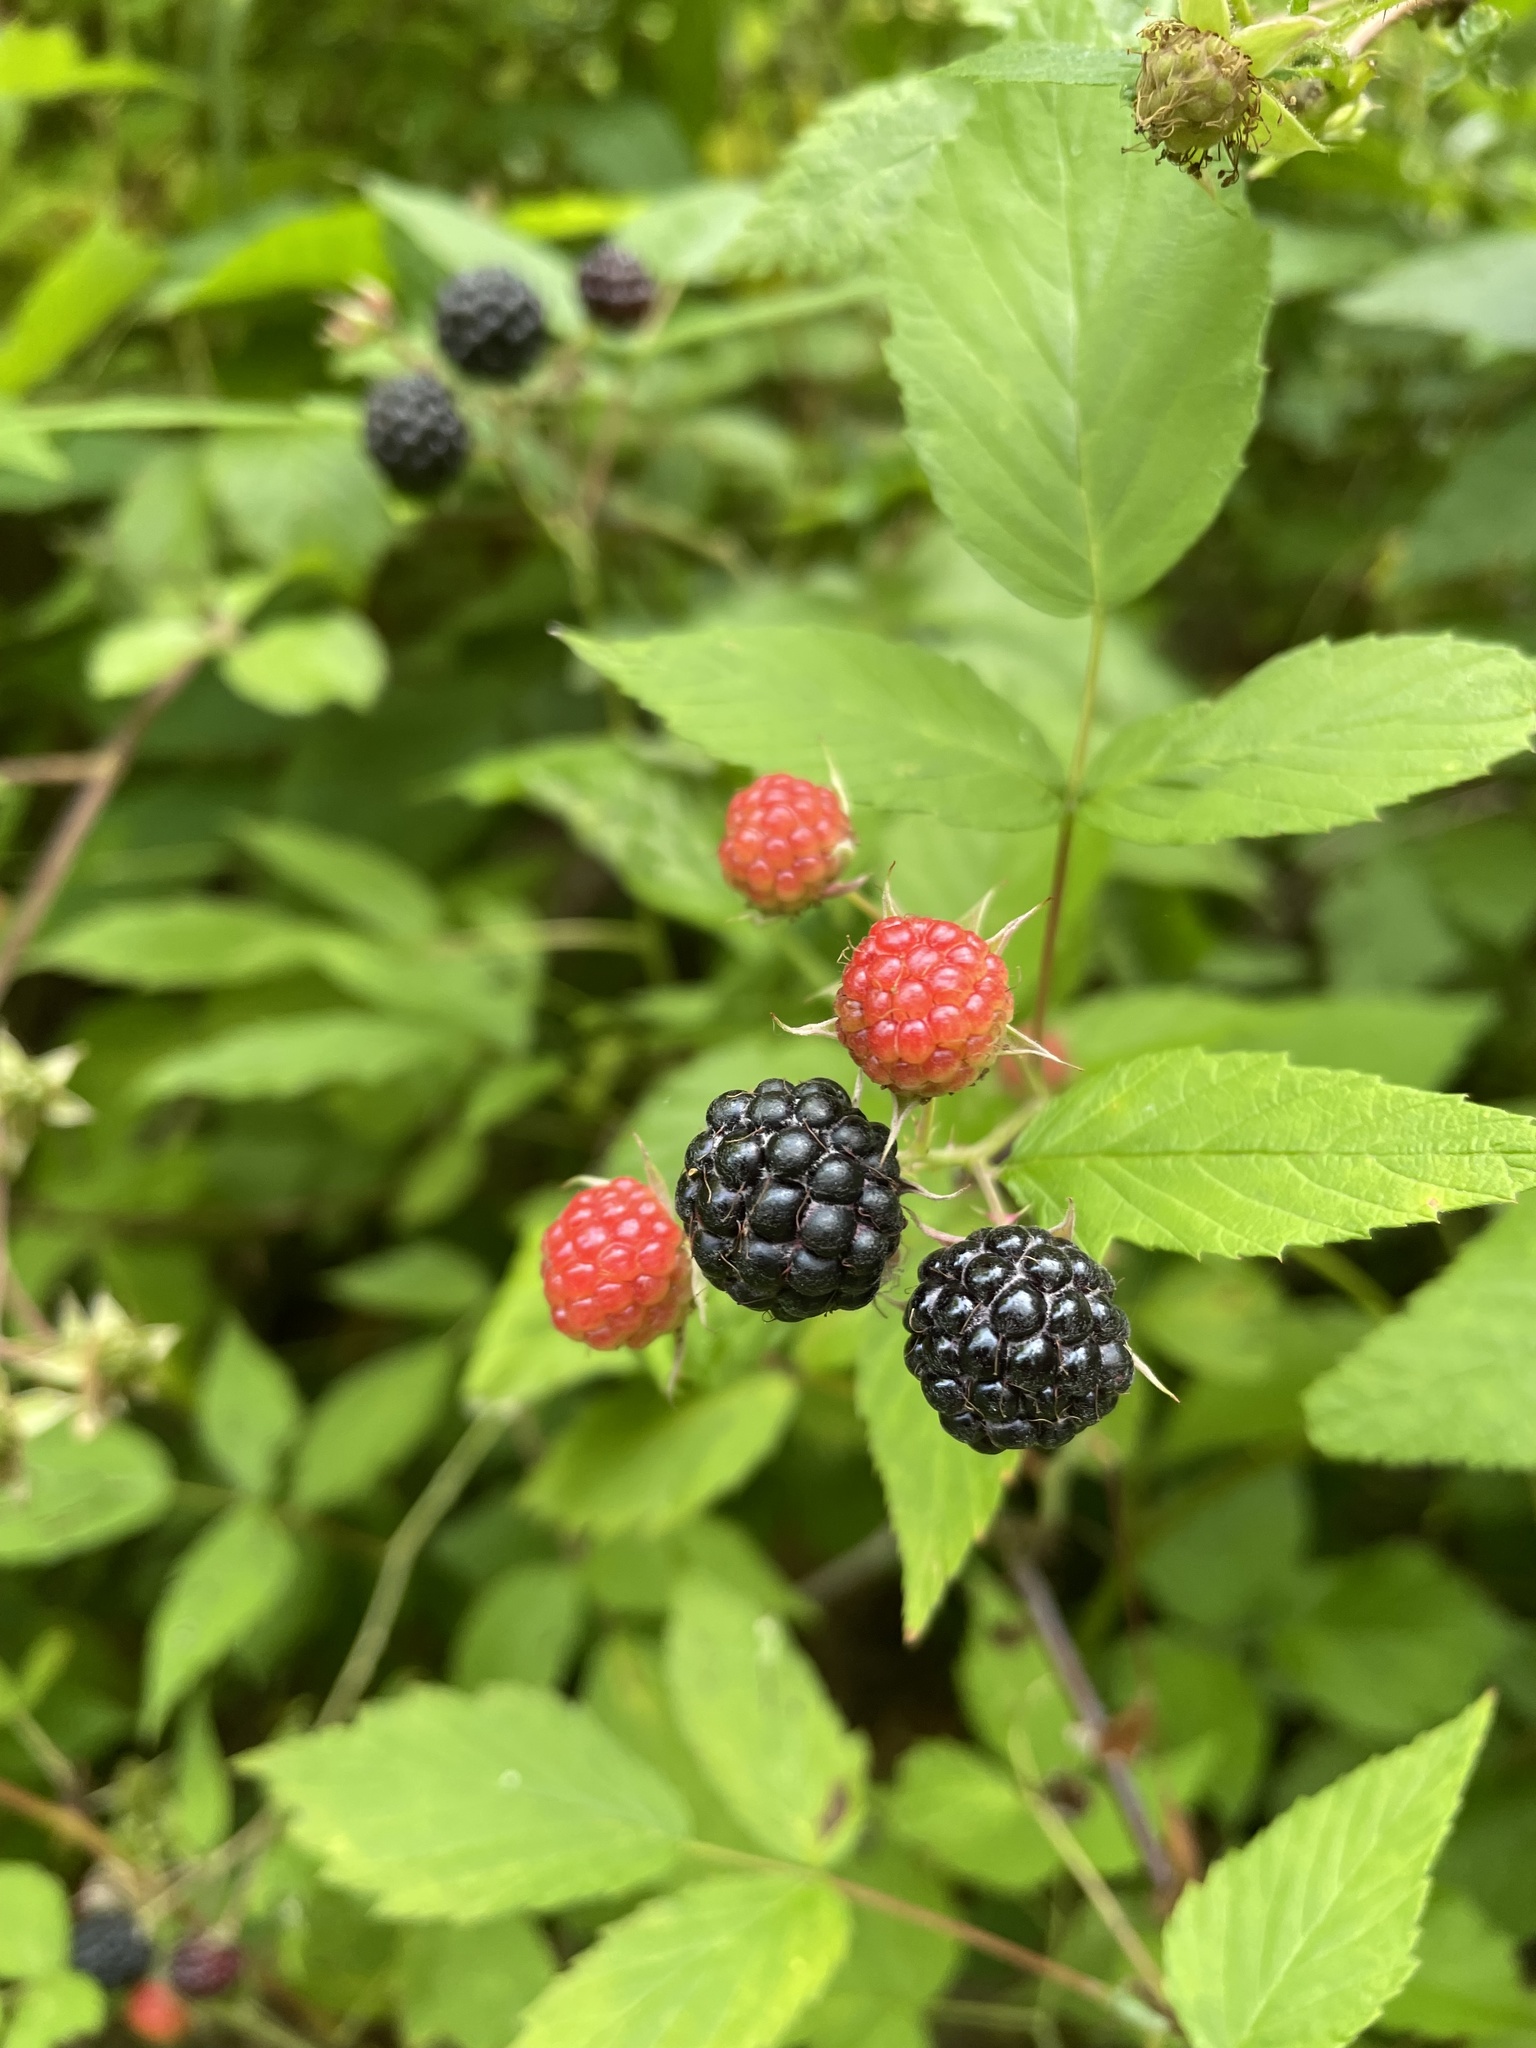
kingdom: Plantae
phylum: Tracheophyta
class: Magnoliopsida
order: Rosales
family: Rosaceae
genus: Rubus
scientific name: Rubus occidentalis
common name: Black raspberry
